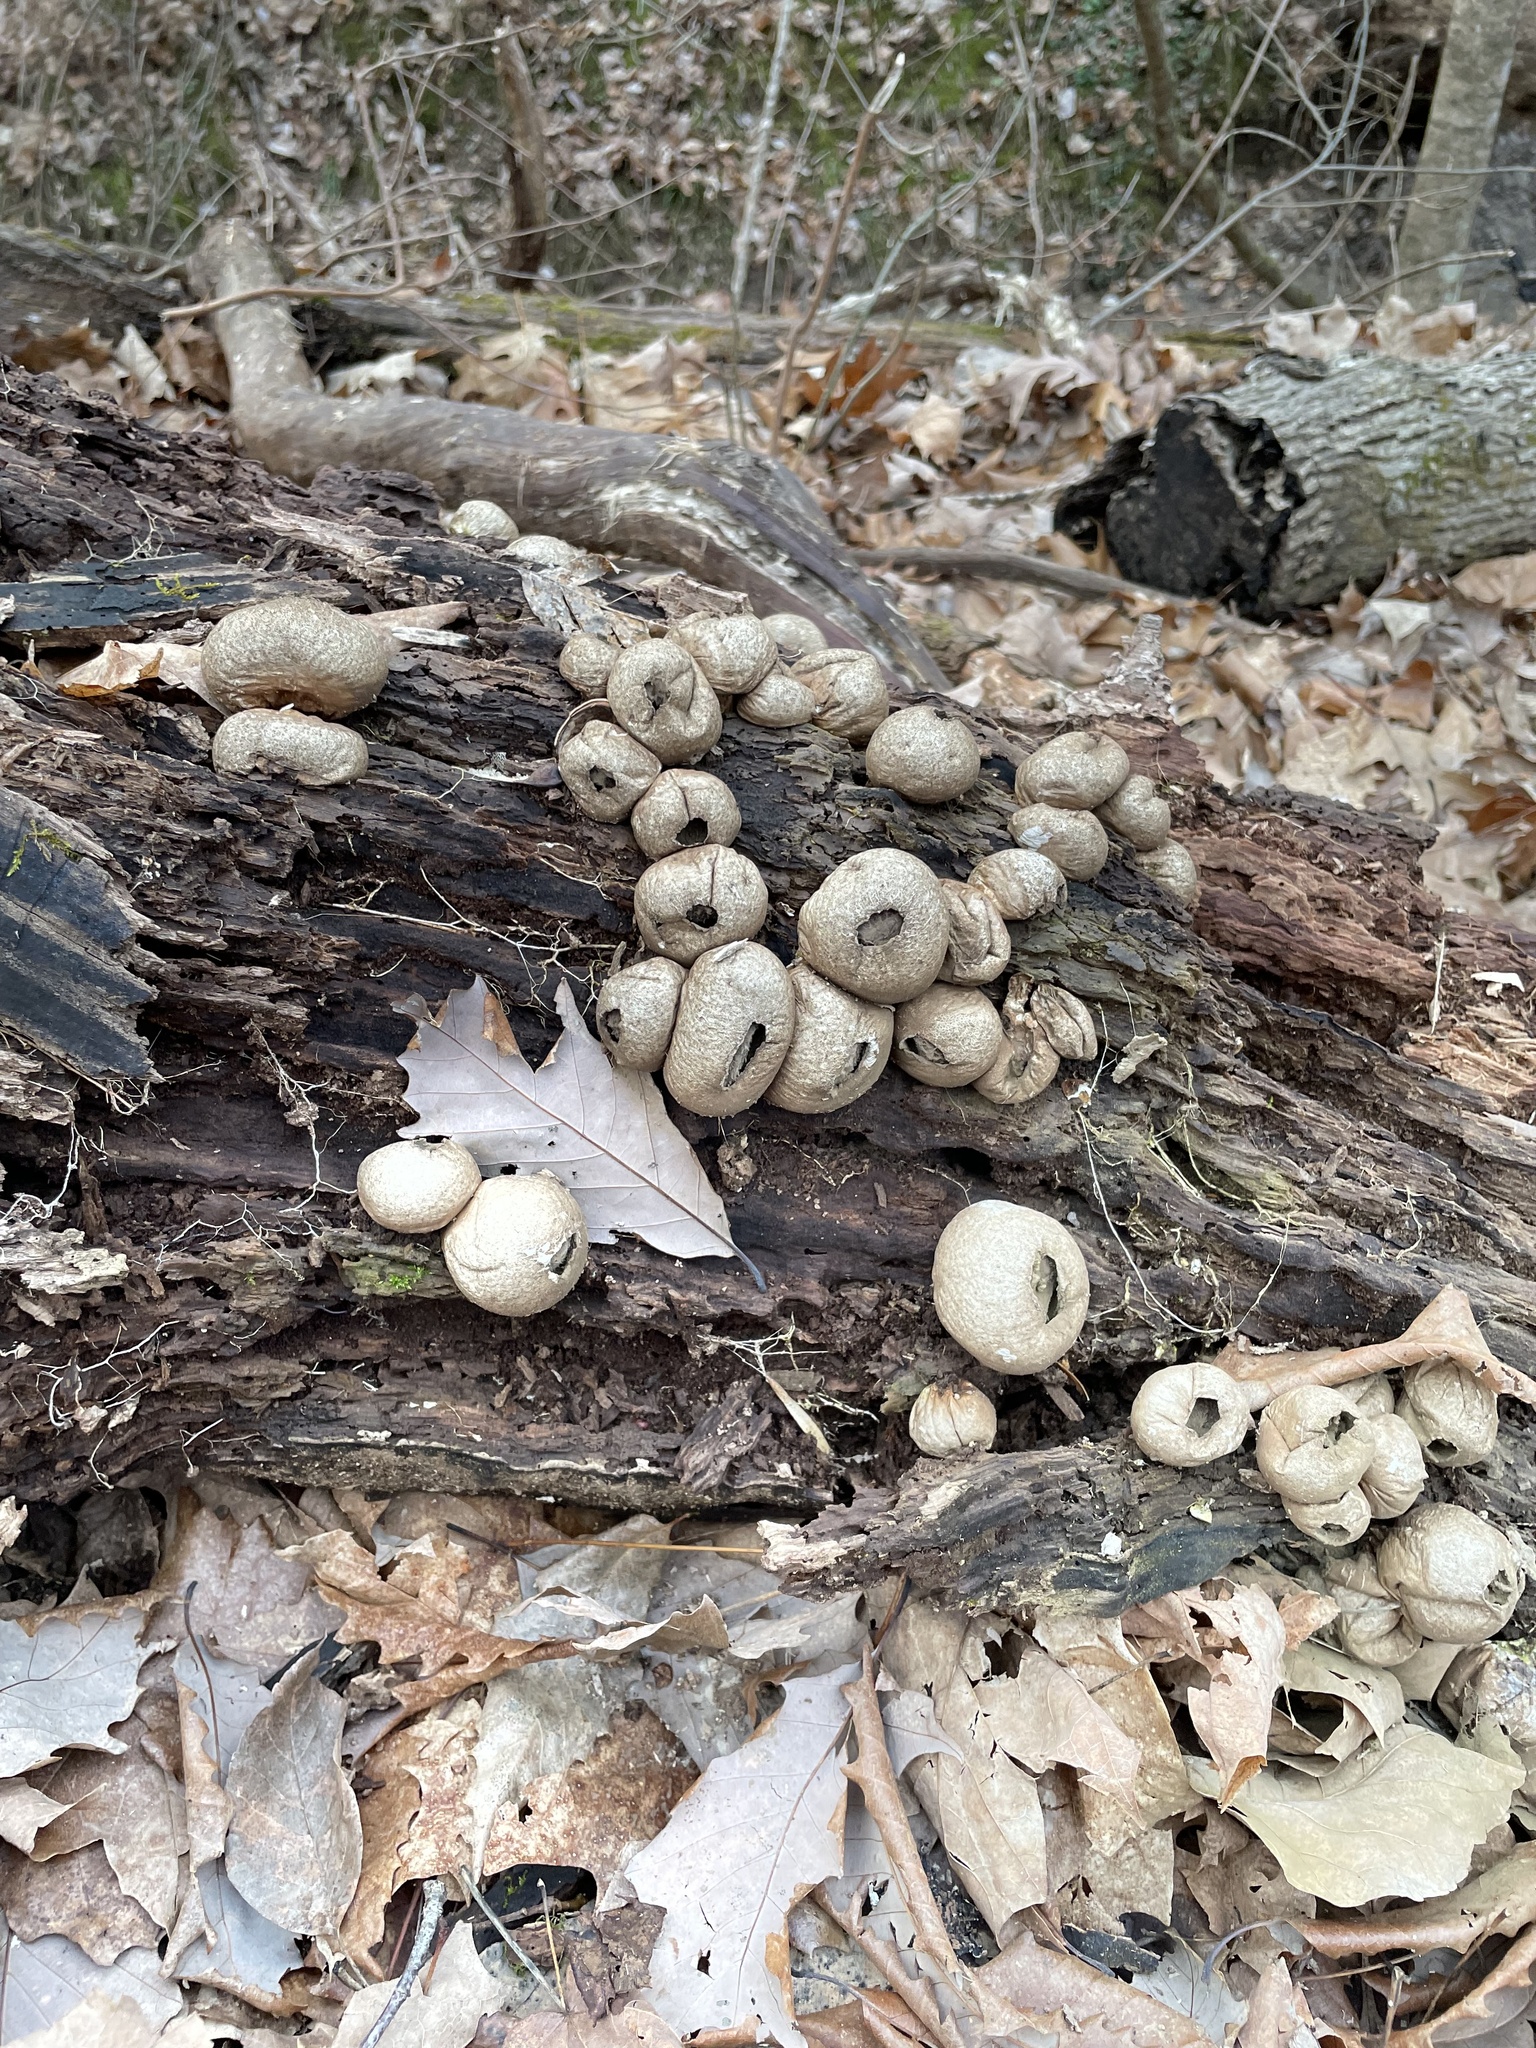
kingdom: Fungi
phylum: Basidiomycota
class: Agaricomycetes
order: Agaricales
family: Lycoperdaceae
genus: Apioperdon
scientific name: Apioperdon pyriforme
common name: Pear-shaped puffball
